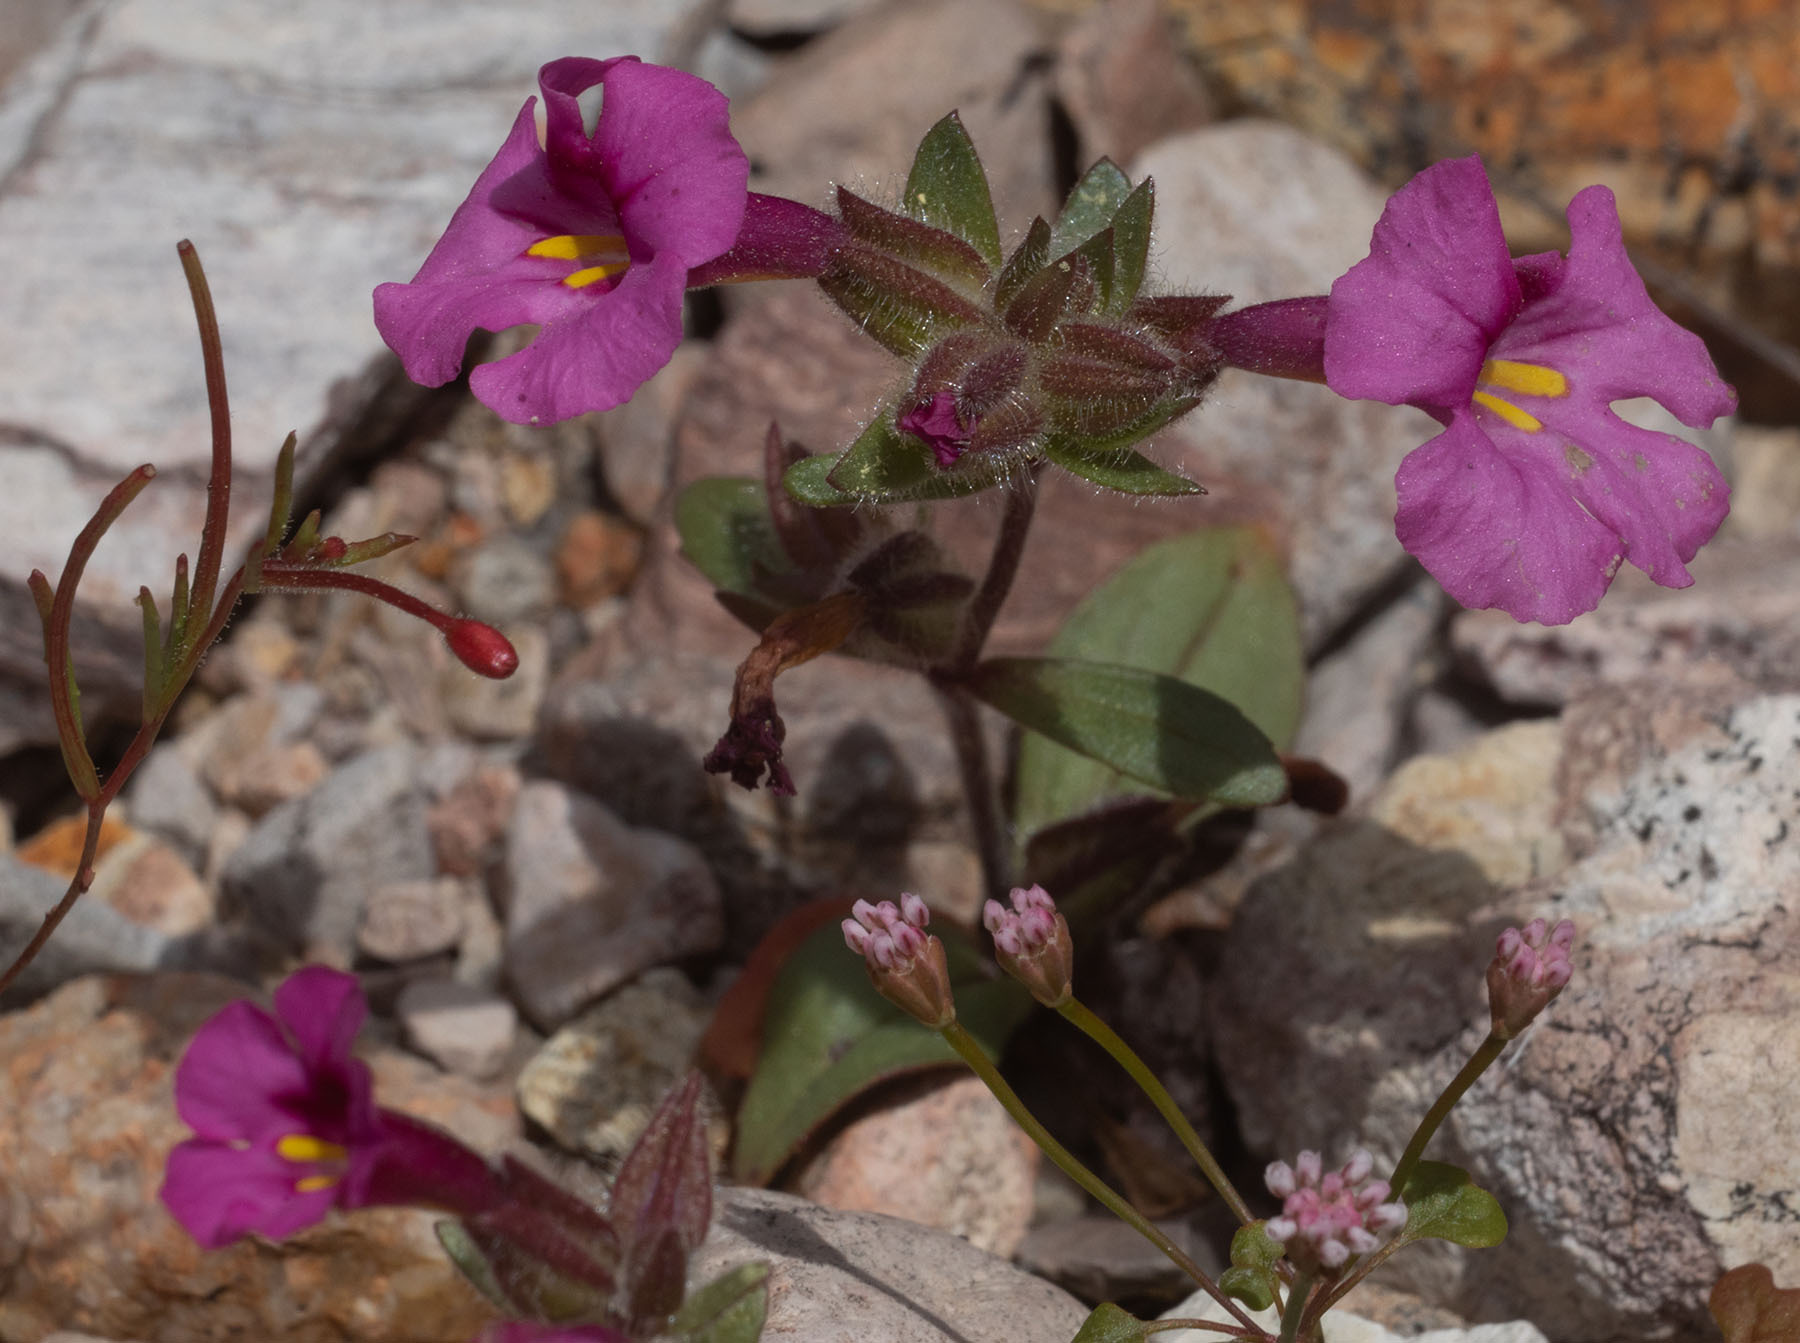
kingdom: Plantae
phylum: Tracheophyta
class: Magnoliopsida
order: Lamiales
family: Phrymaceae
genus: Diplacus
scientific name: Diplacus fremontii
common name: Fremont's monkey-flower
